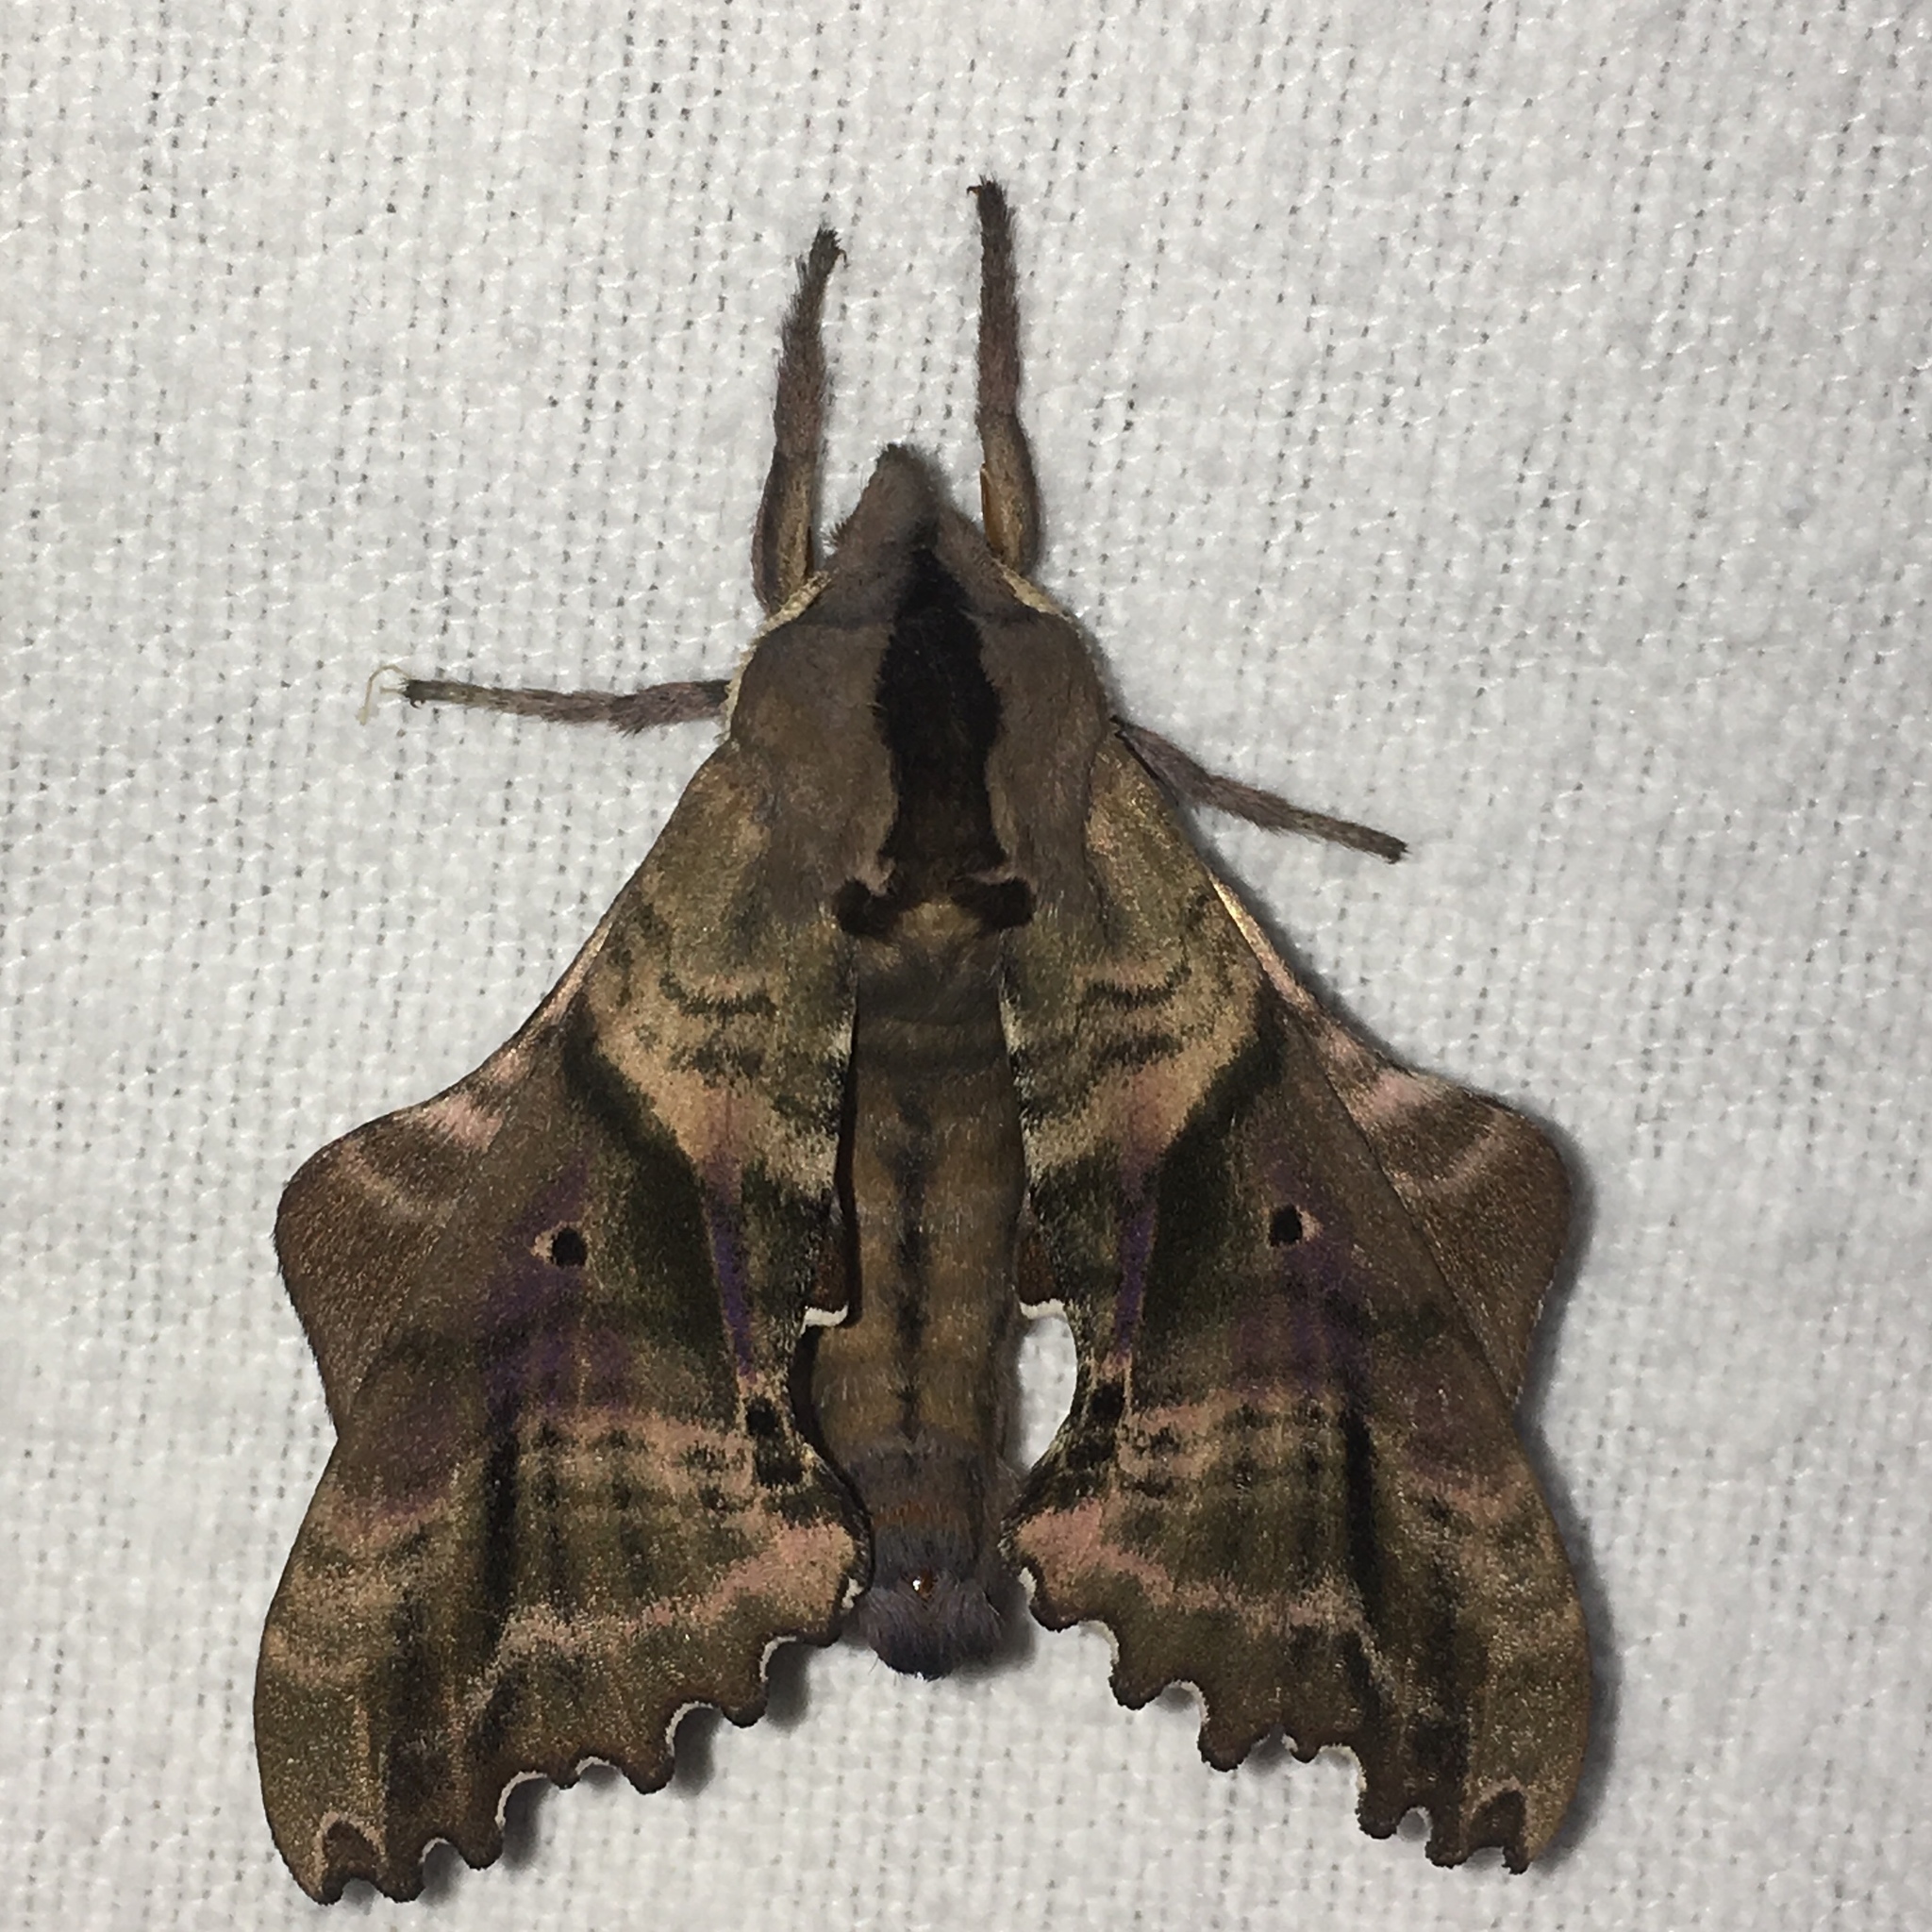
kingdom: Animalia
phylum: Arthropoda
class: Insecta
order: Lepidoptera
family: Sphingidae
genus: Paonias
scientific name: Paonias excaecata
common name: Blind-eyed sphinx
